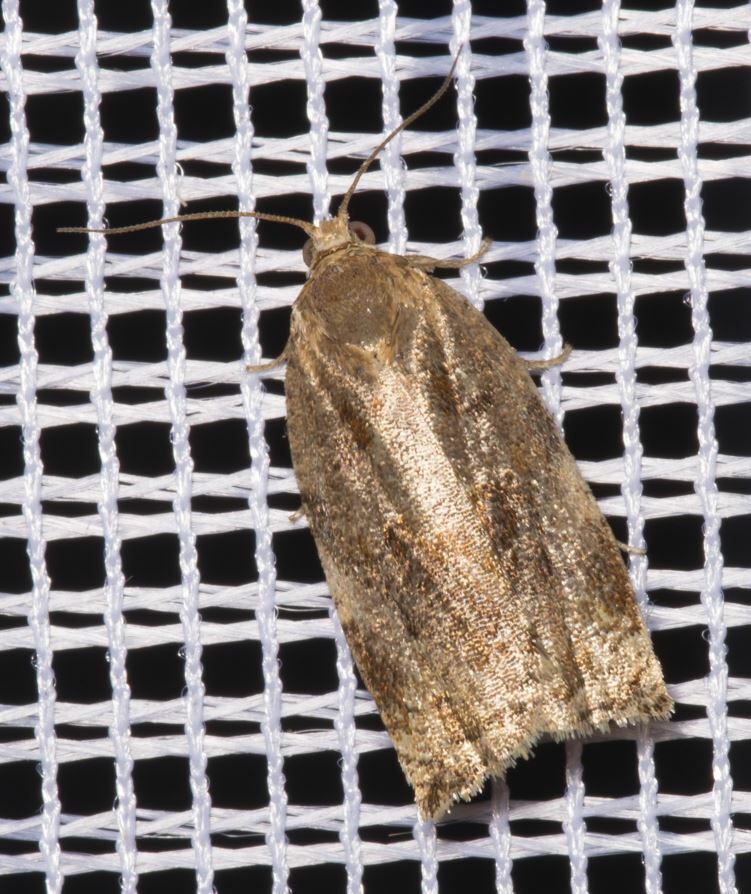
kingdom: Animalia
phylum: Arthropoda
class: Insecta
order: Lepidoptera
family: Tortricidae
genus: Archips
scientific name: Archips xylosteana
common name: Variegated golden tortrix
